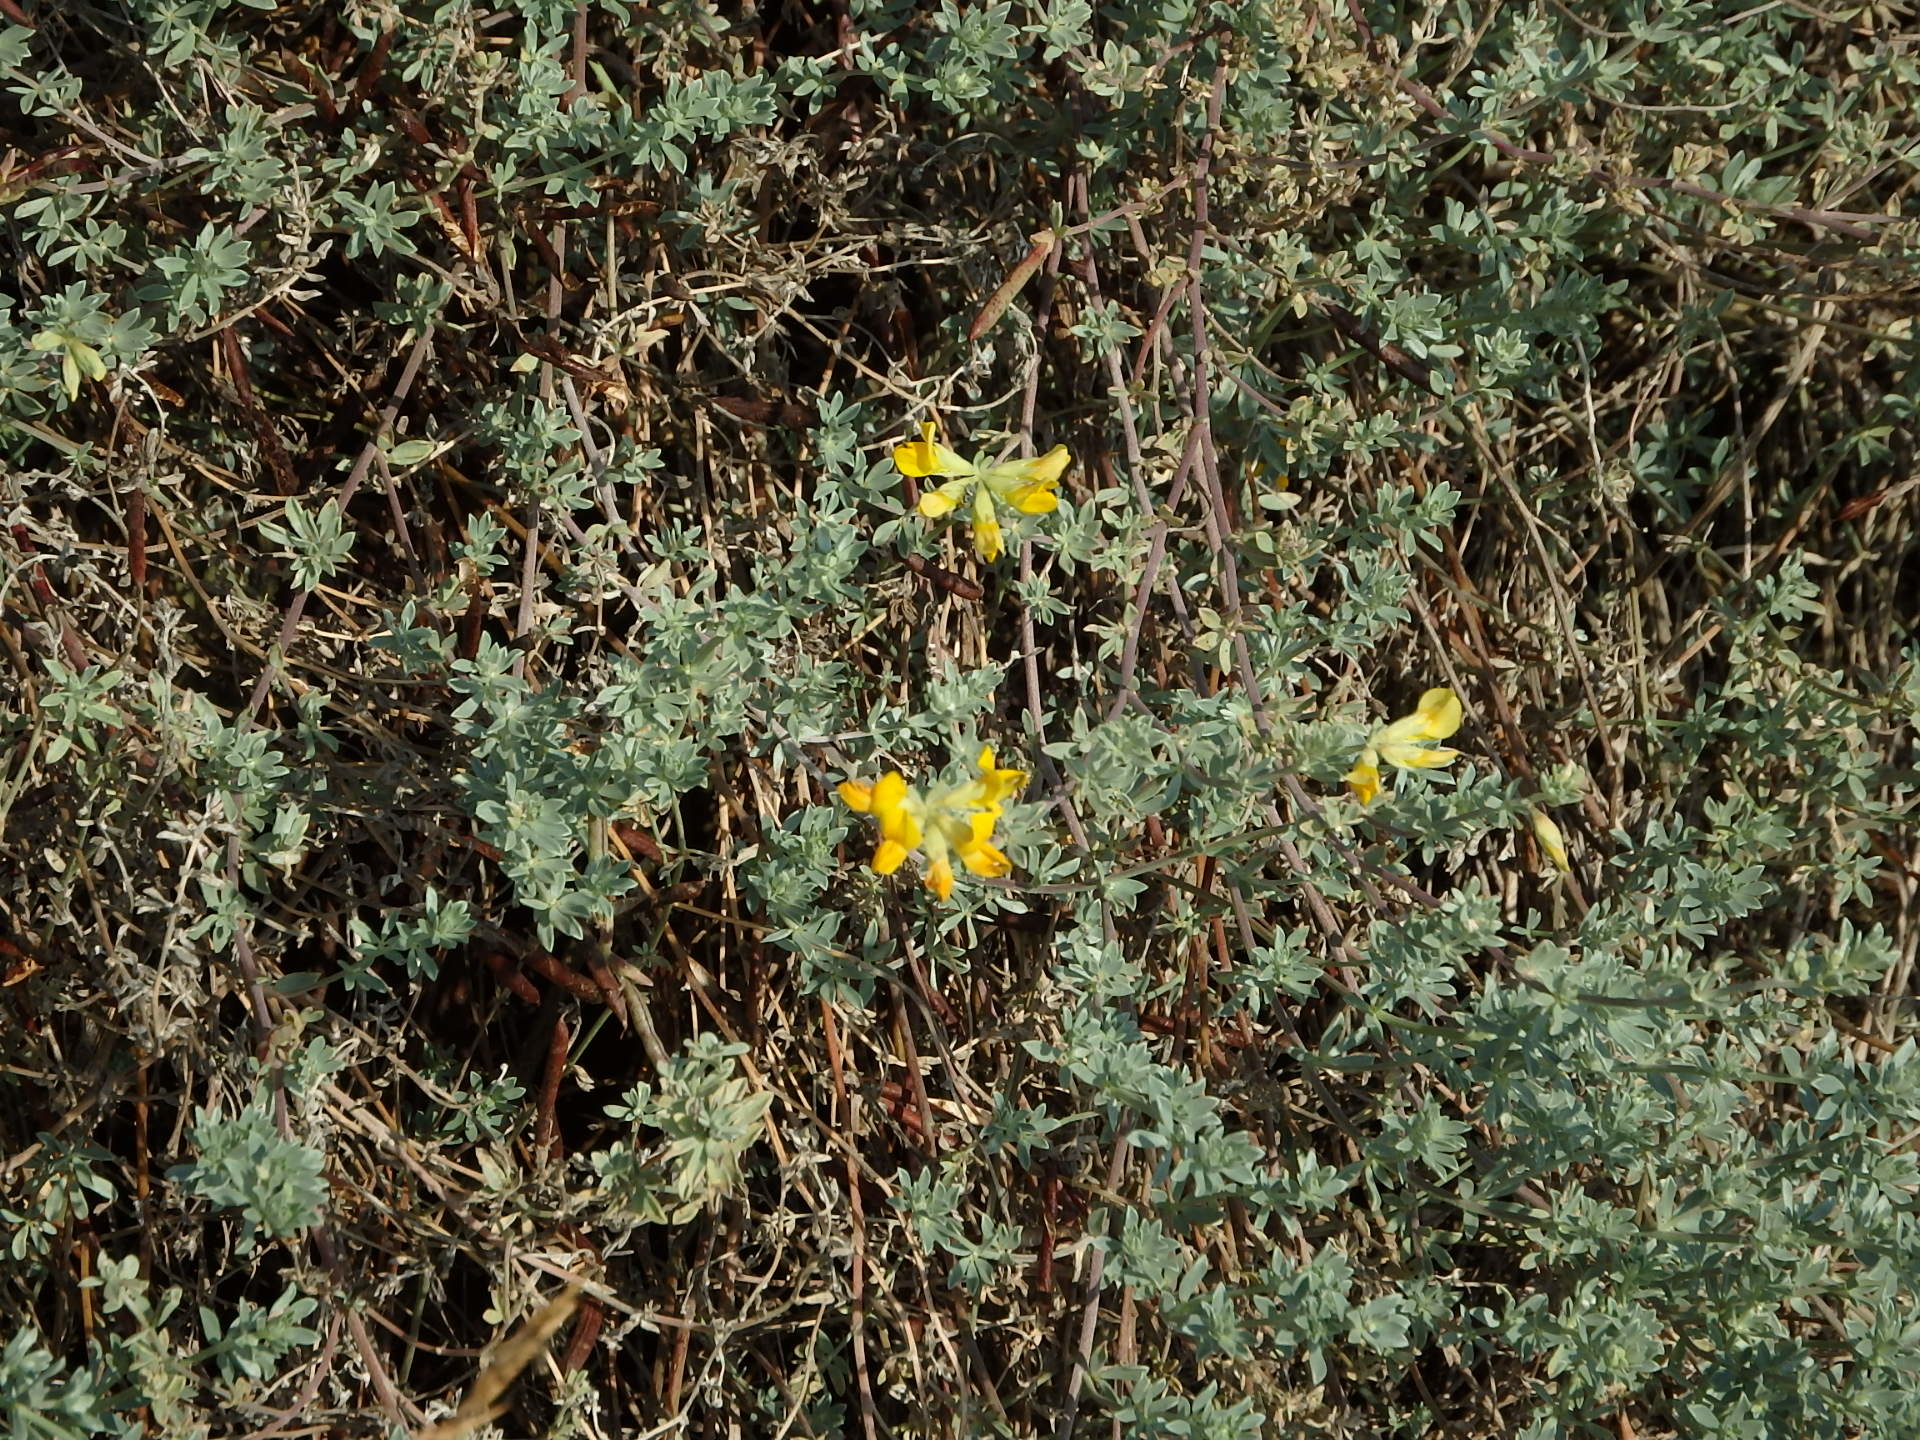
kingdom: Plantae
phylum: Tracheophyta
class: Magnoliopsida
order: Fabales
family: Fabaceae
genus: Lotus
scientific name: Lotus creticus
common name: Cretan bird's-foot trefoil
